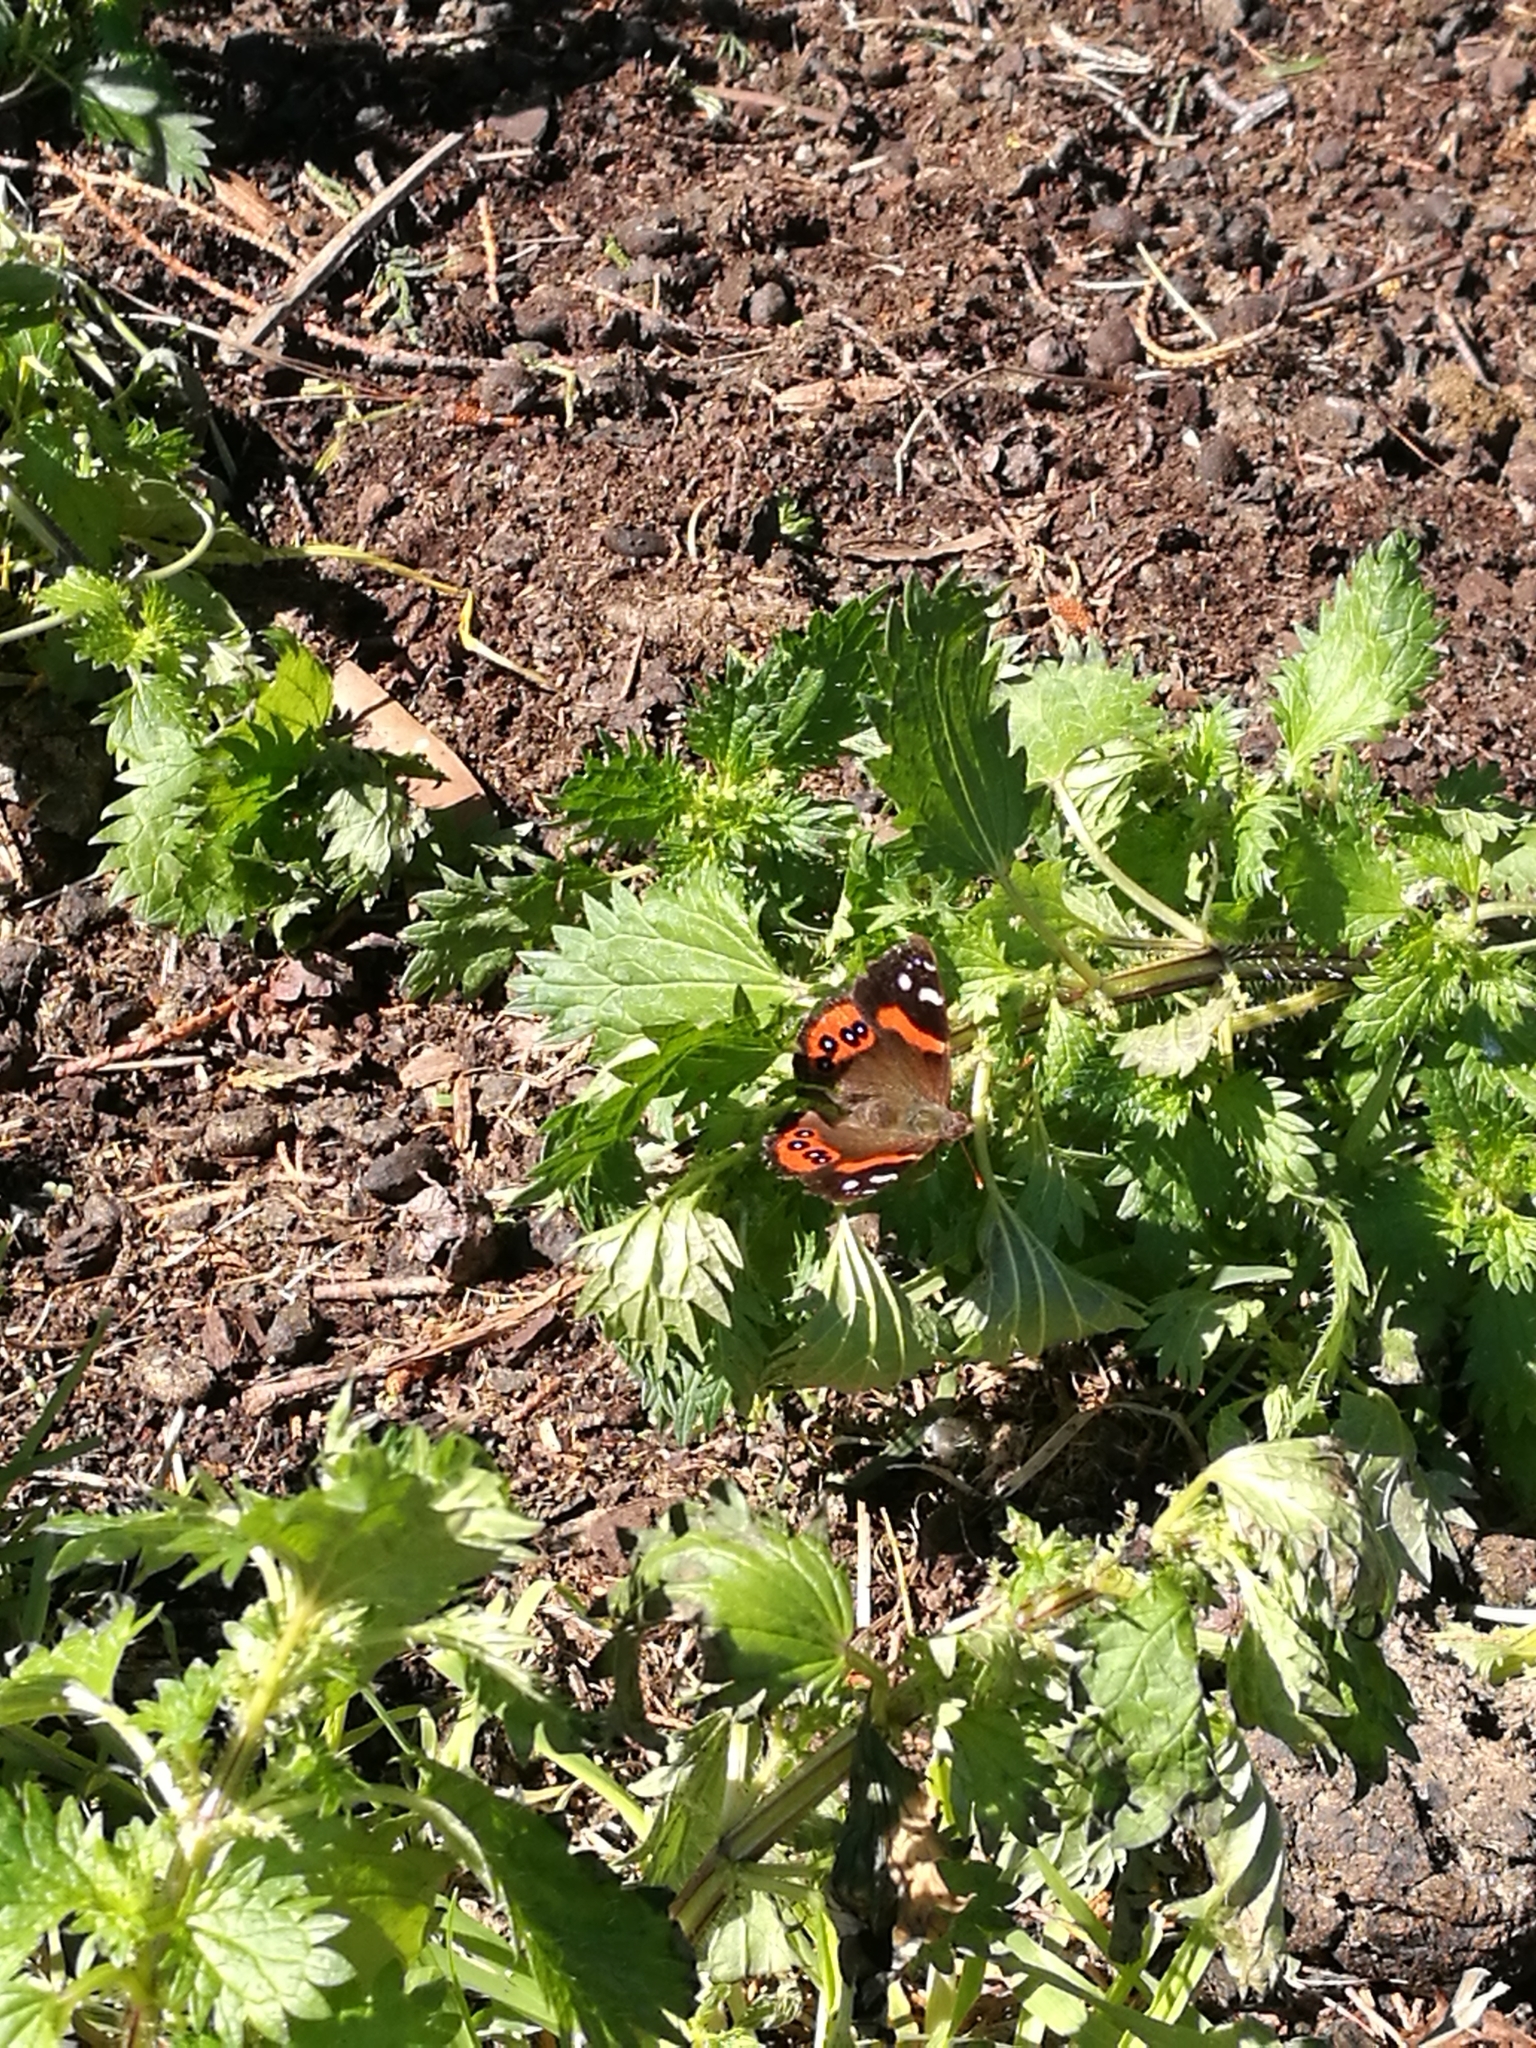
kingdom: Animalia
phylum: Arthropoda
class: Insecta
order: Lepidoptera
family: Nymphalidae
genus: Vanessa
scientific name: Vanessa gonerilla
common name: New zealand red admiral
